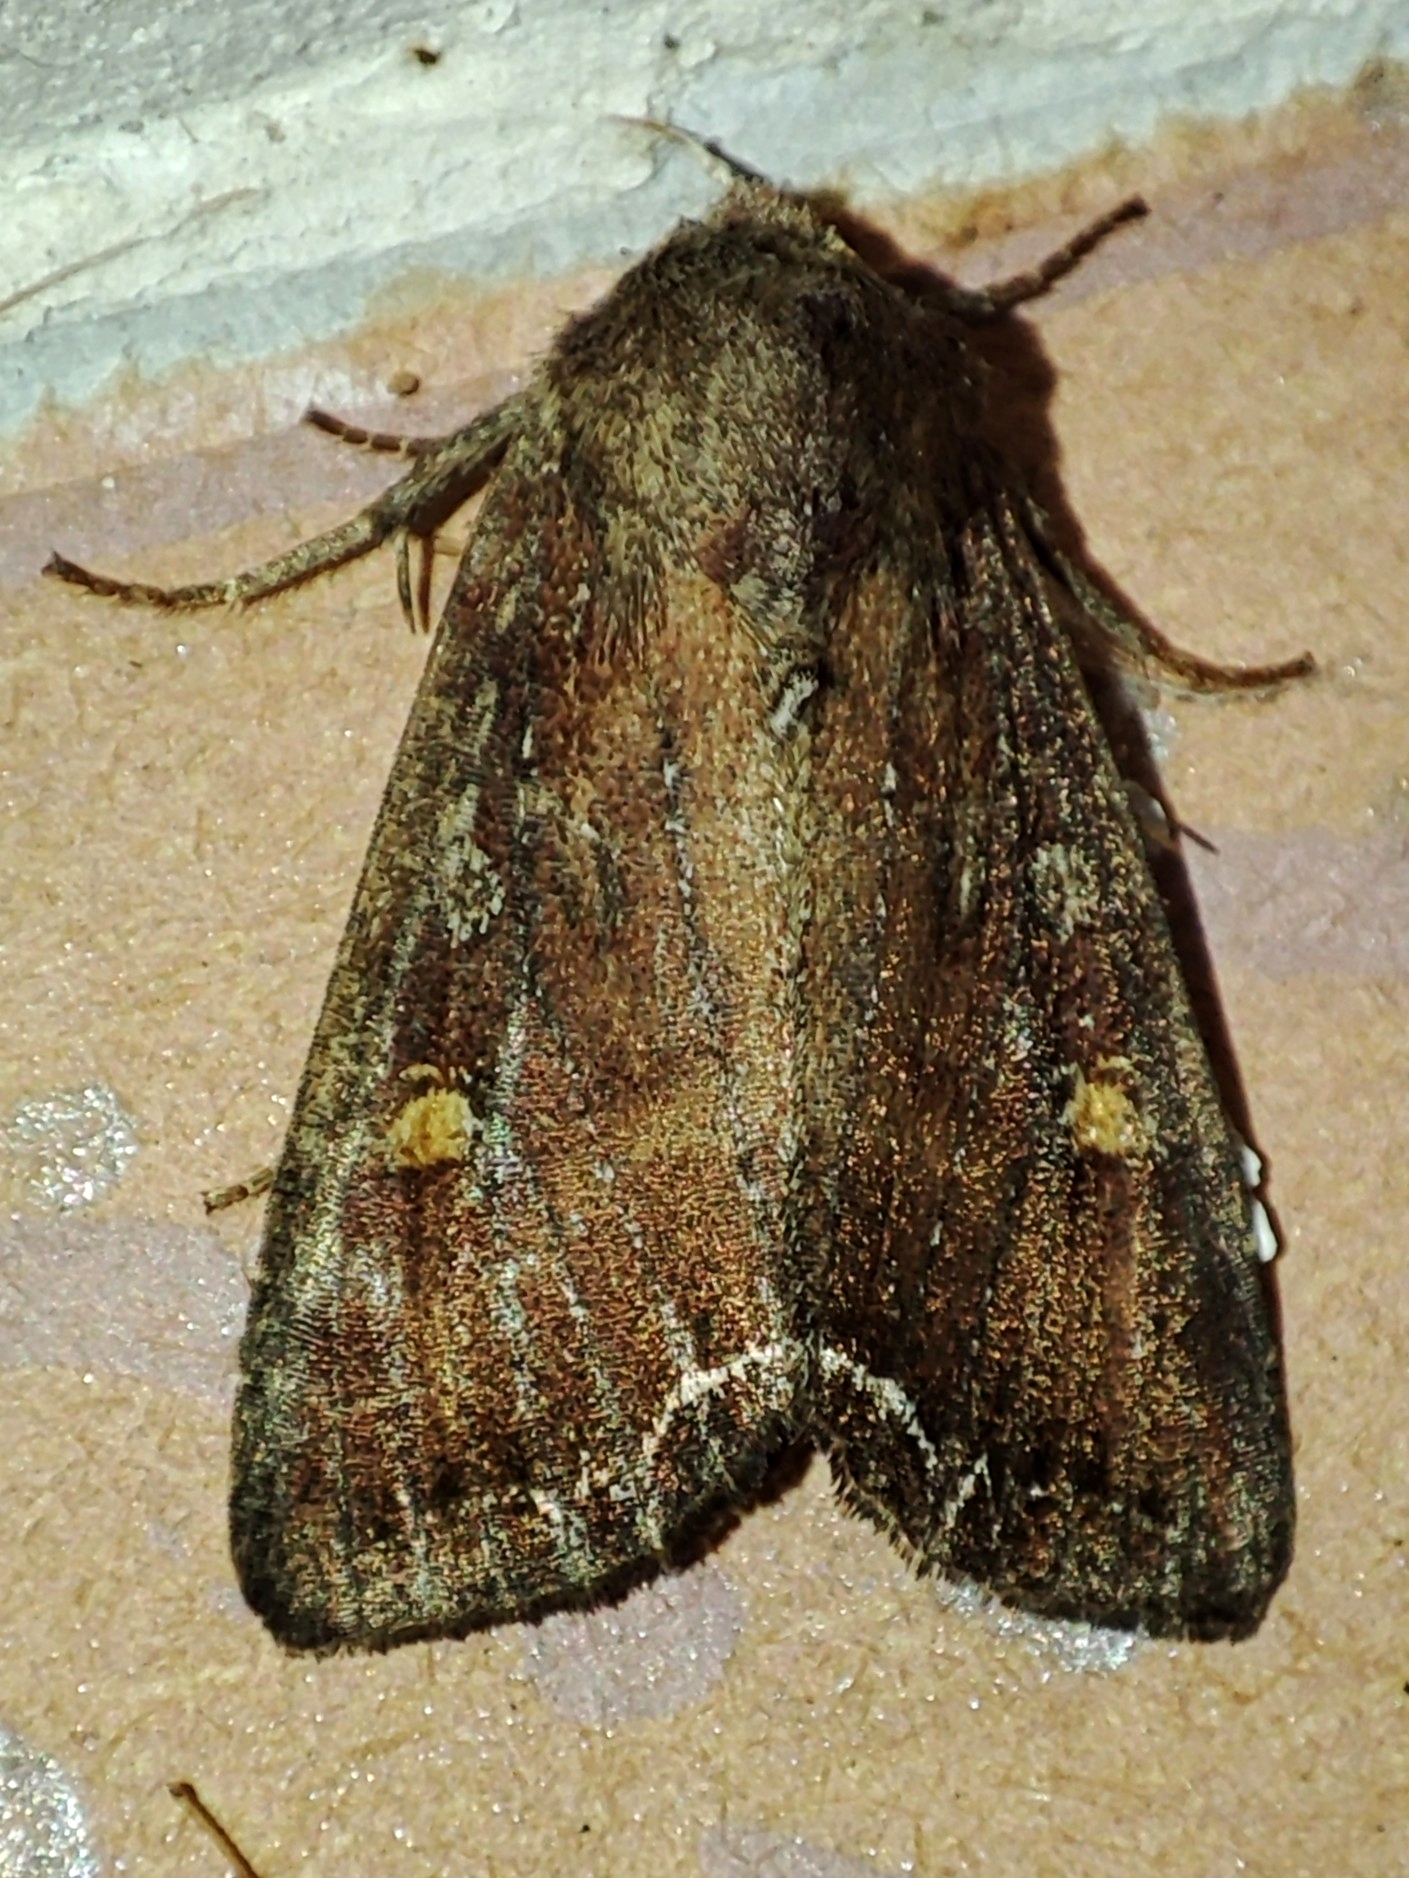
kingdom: Animalia
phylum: Arthropoda
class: Insecta
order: Lepidoptera
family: Noctuidae
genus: Lacanobia
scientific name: Lacanobia oleracea
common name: Bright-line brown-eye
